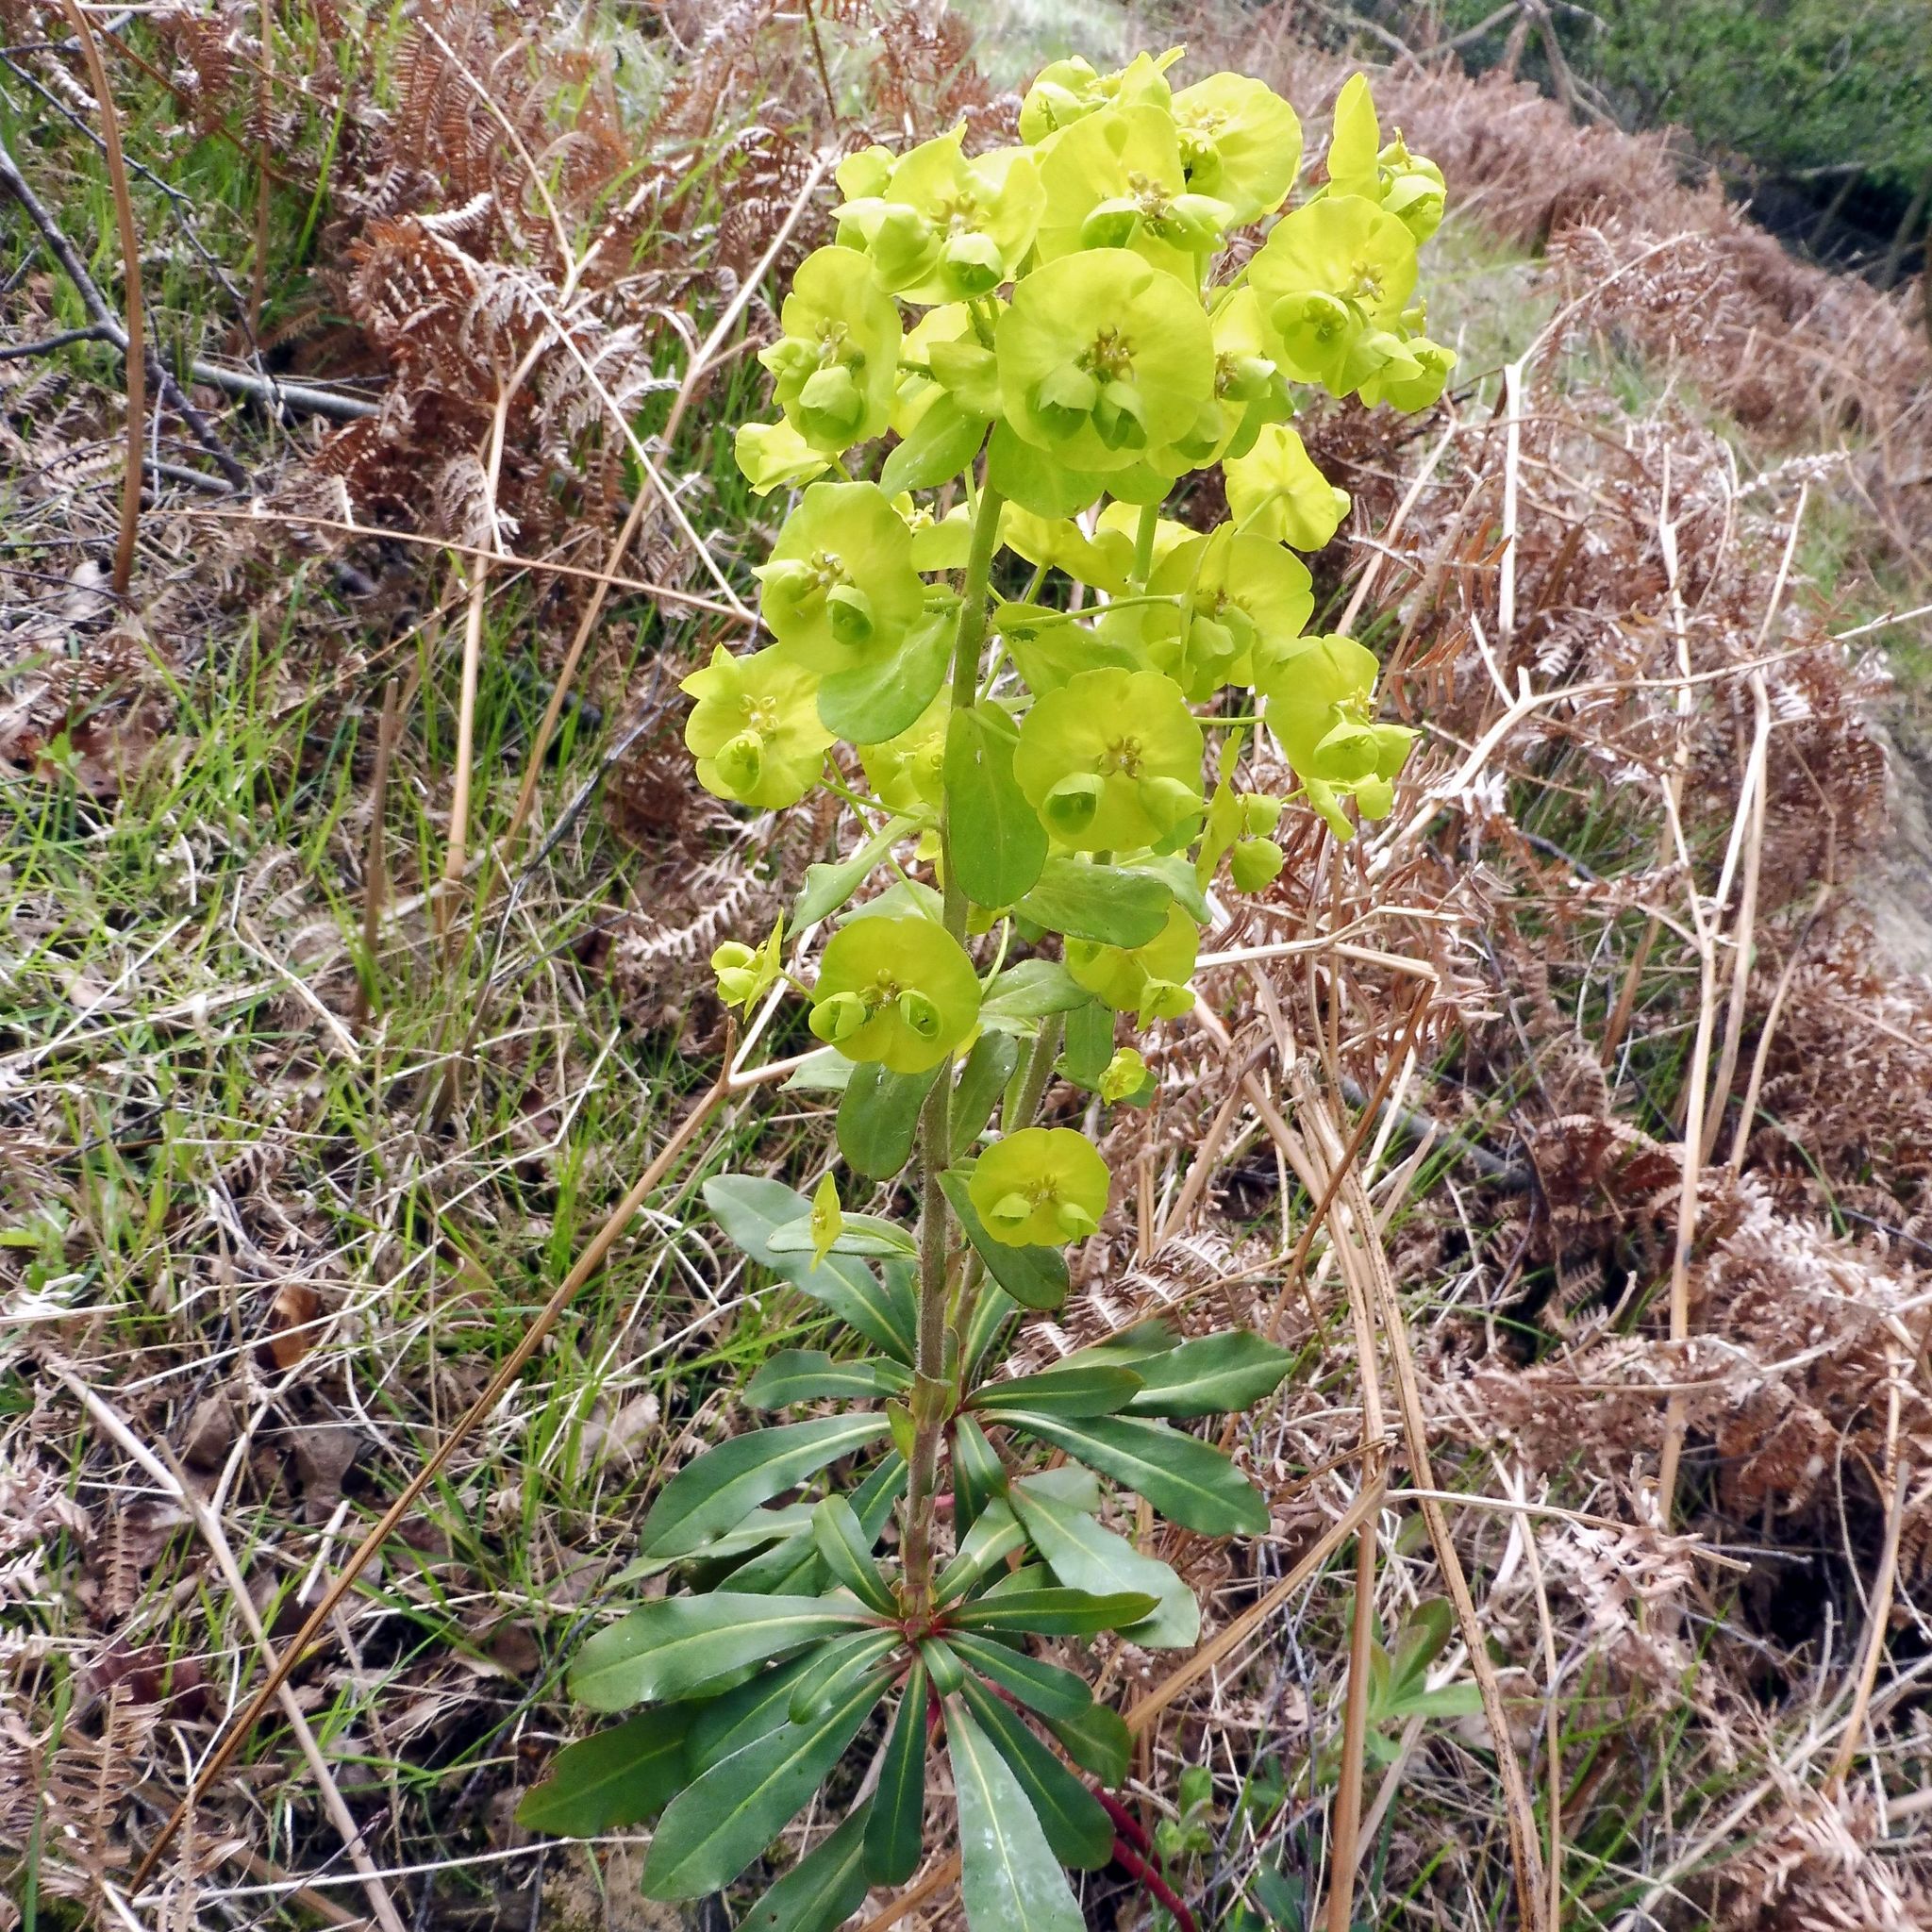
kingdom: Plantae
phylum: Tracheophyta
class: Magnoliopsida
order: Malpighiales
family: Euphorbiaceae
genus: Euphorbia
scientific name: Euphorbia amygdaloides
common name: Wood spurge
